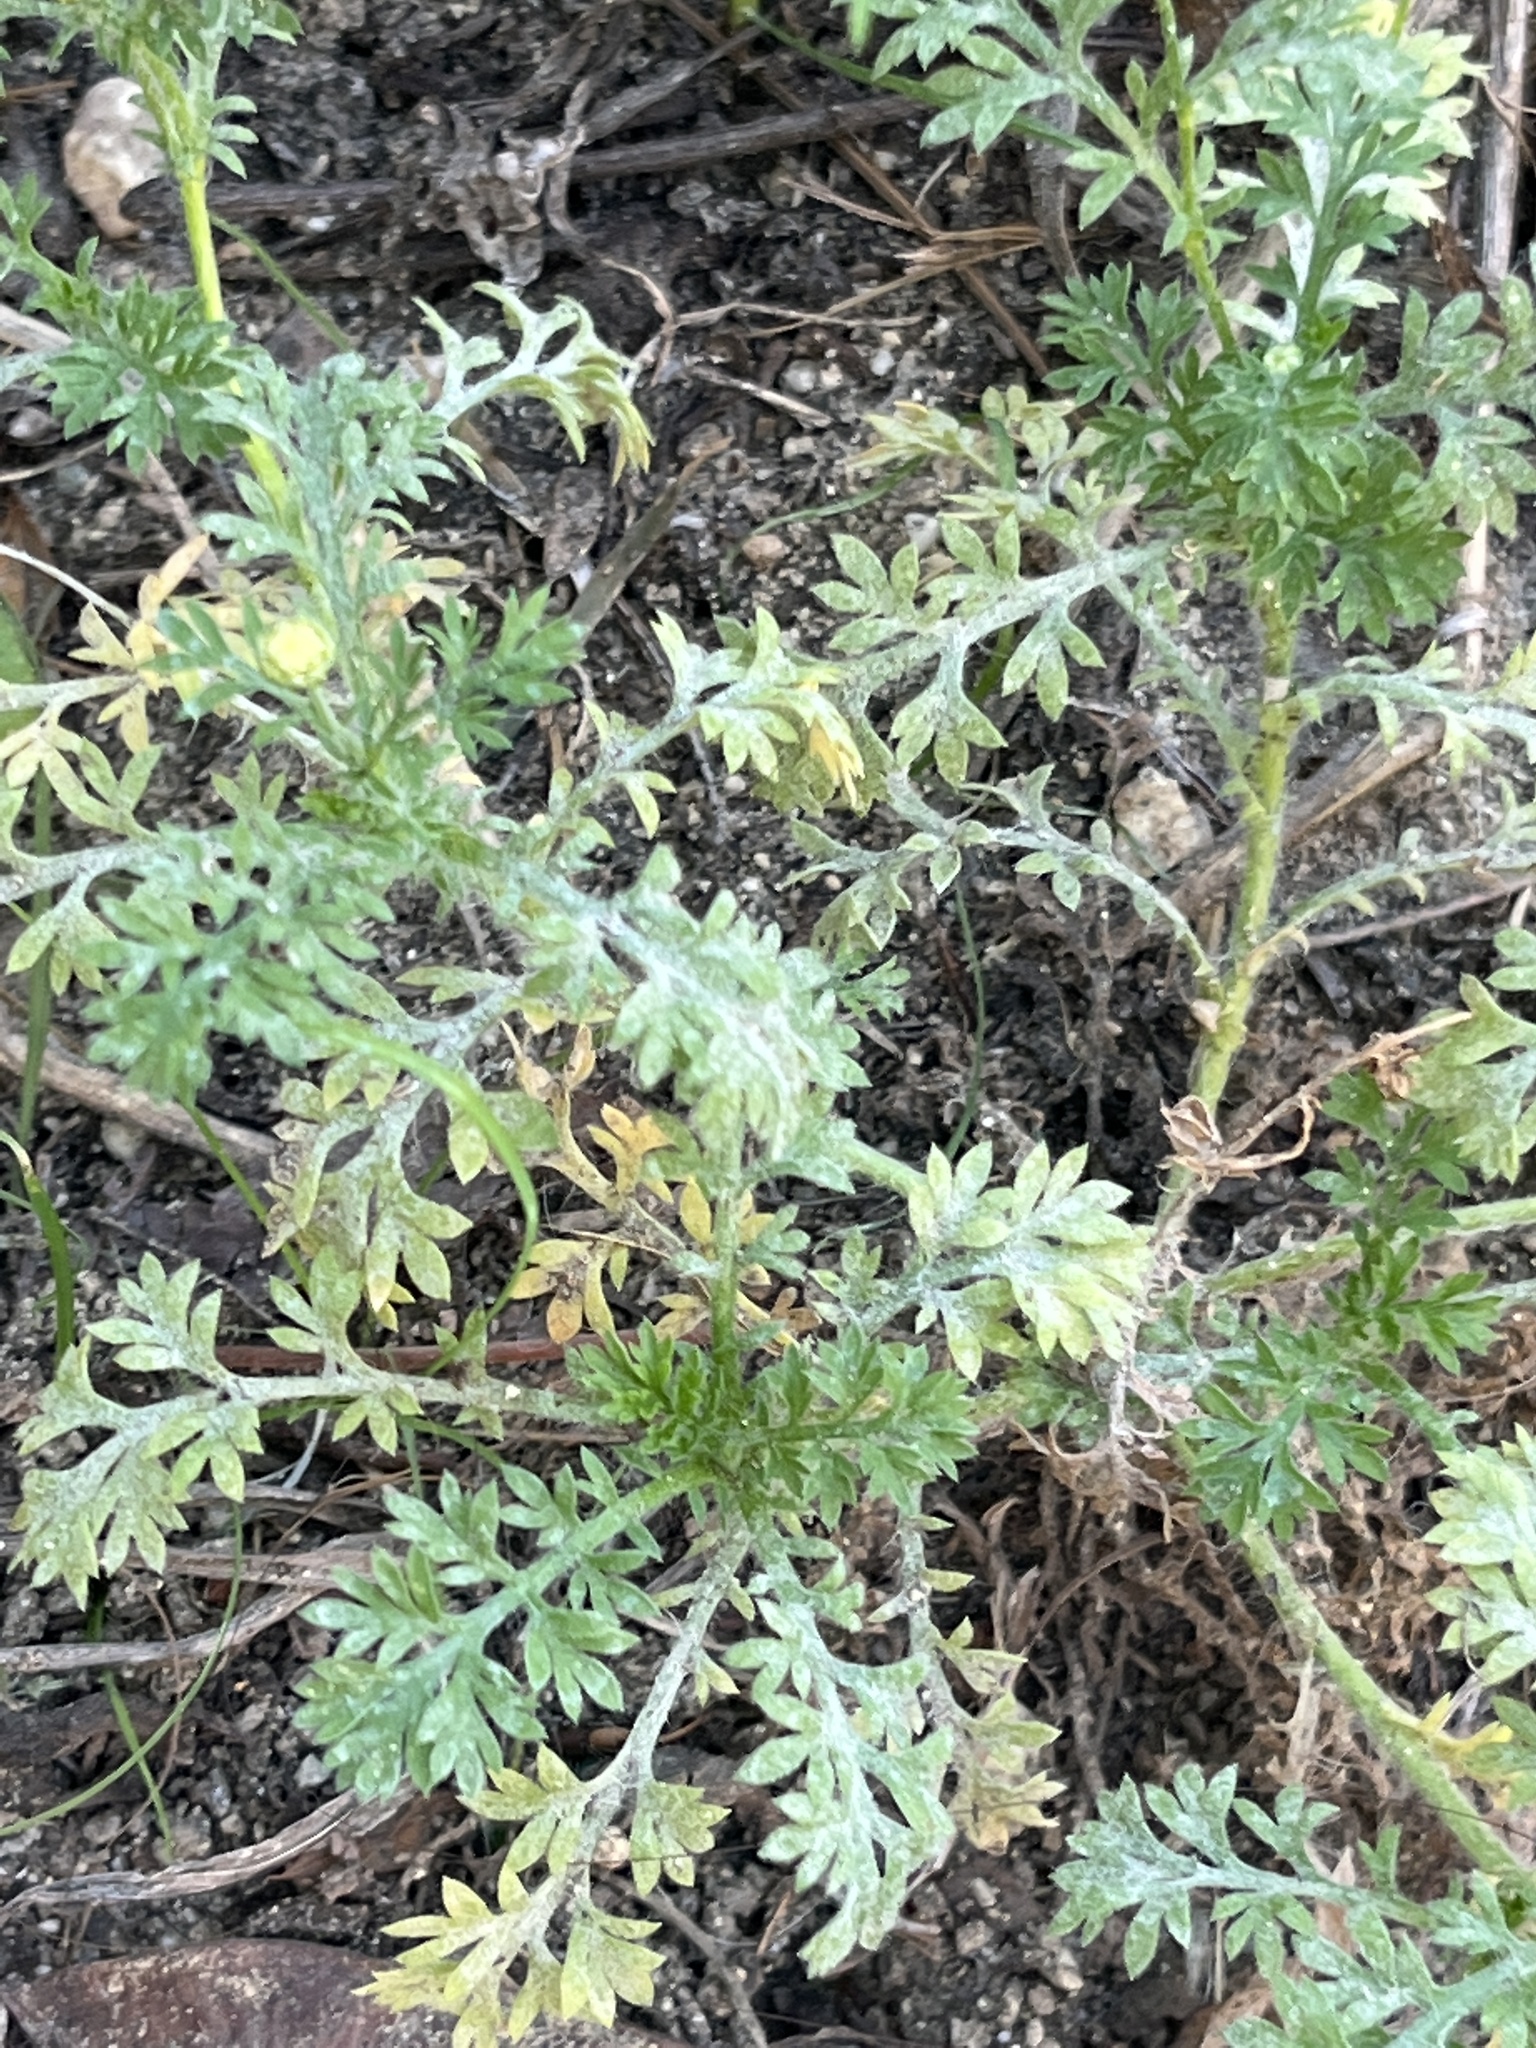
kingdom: Plantae
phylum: Tracheophyta
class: Magnoliopsida
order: Asterales
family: Asteraceae
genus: Cotula
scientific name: Cotula australis
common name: Australian waterbuttons
